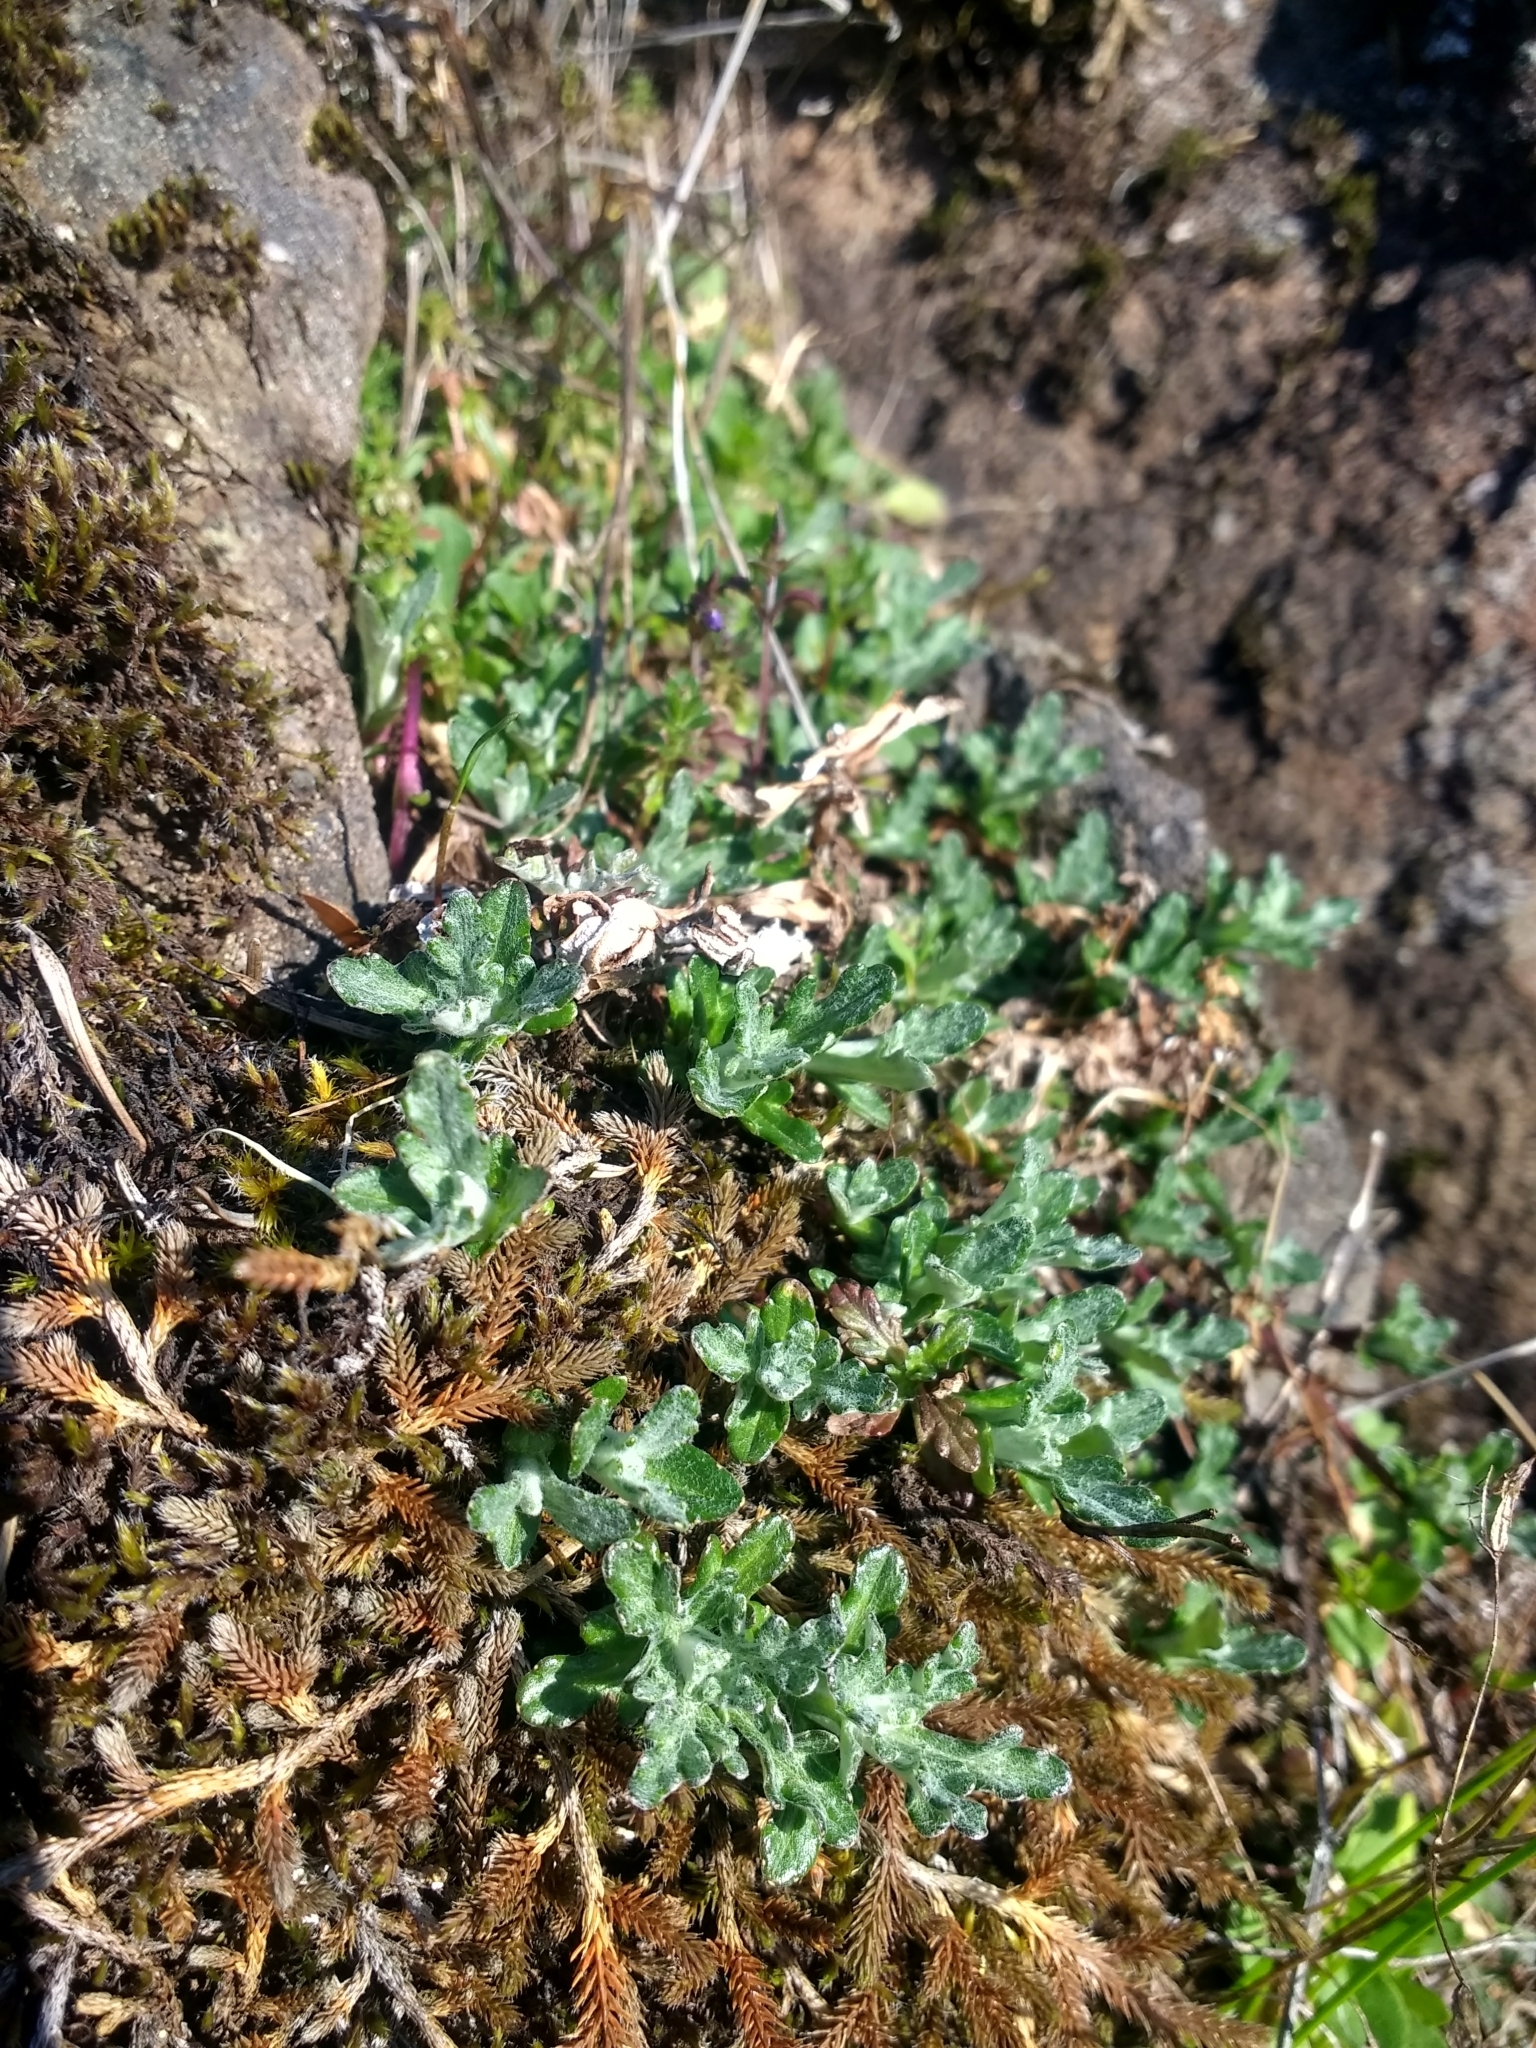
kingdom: Plantae
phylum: Tracheophyta
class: Magnoliopsida
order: Asterales
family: Asteraceae
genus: Eriophyllum
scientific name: Eriophyllum lanatum
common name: Common woolly-sunflower
